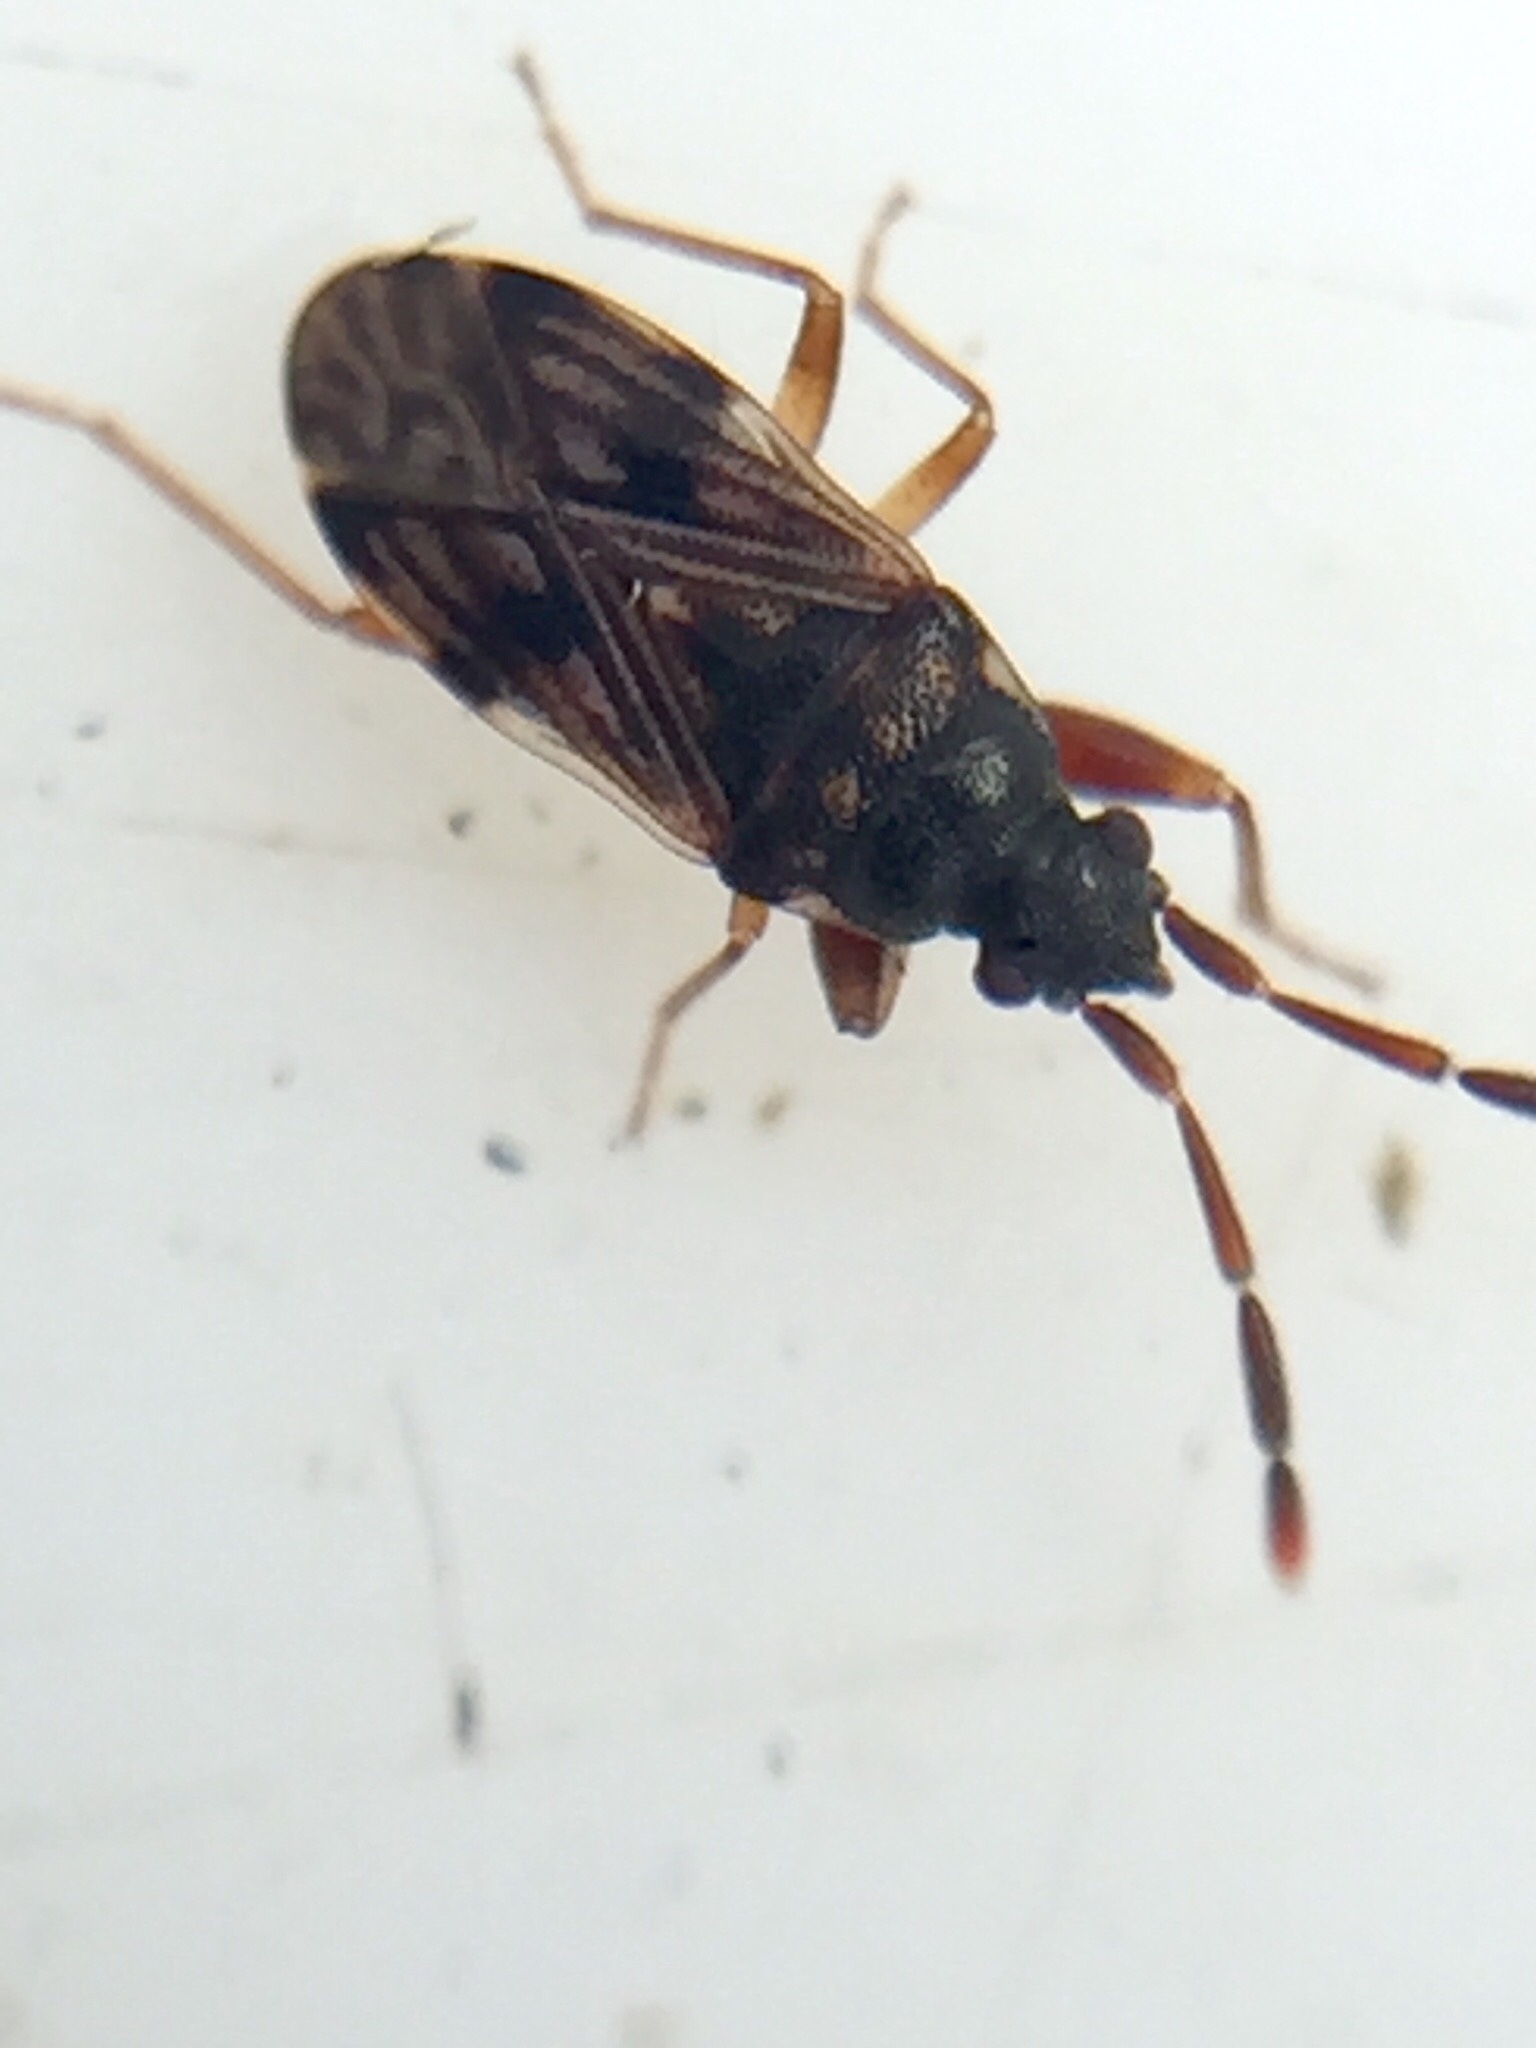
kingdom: Animalia
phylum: Arthropoda
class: Insecta
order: Hemiptera
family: Rhyparochromidae
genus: Brentiscerus
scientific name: Brentiscerus putoni
